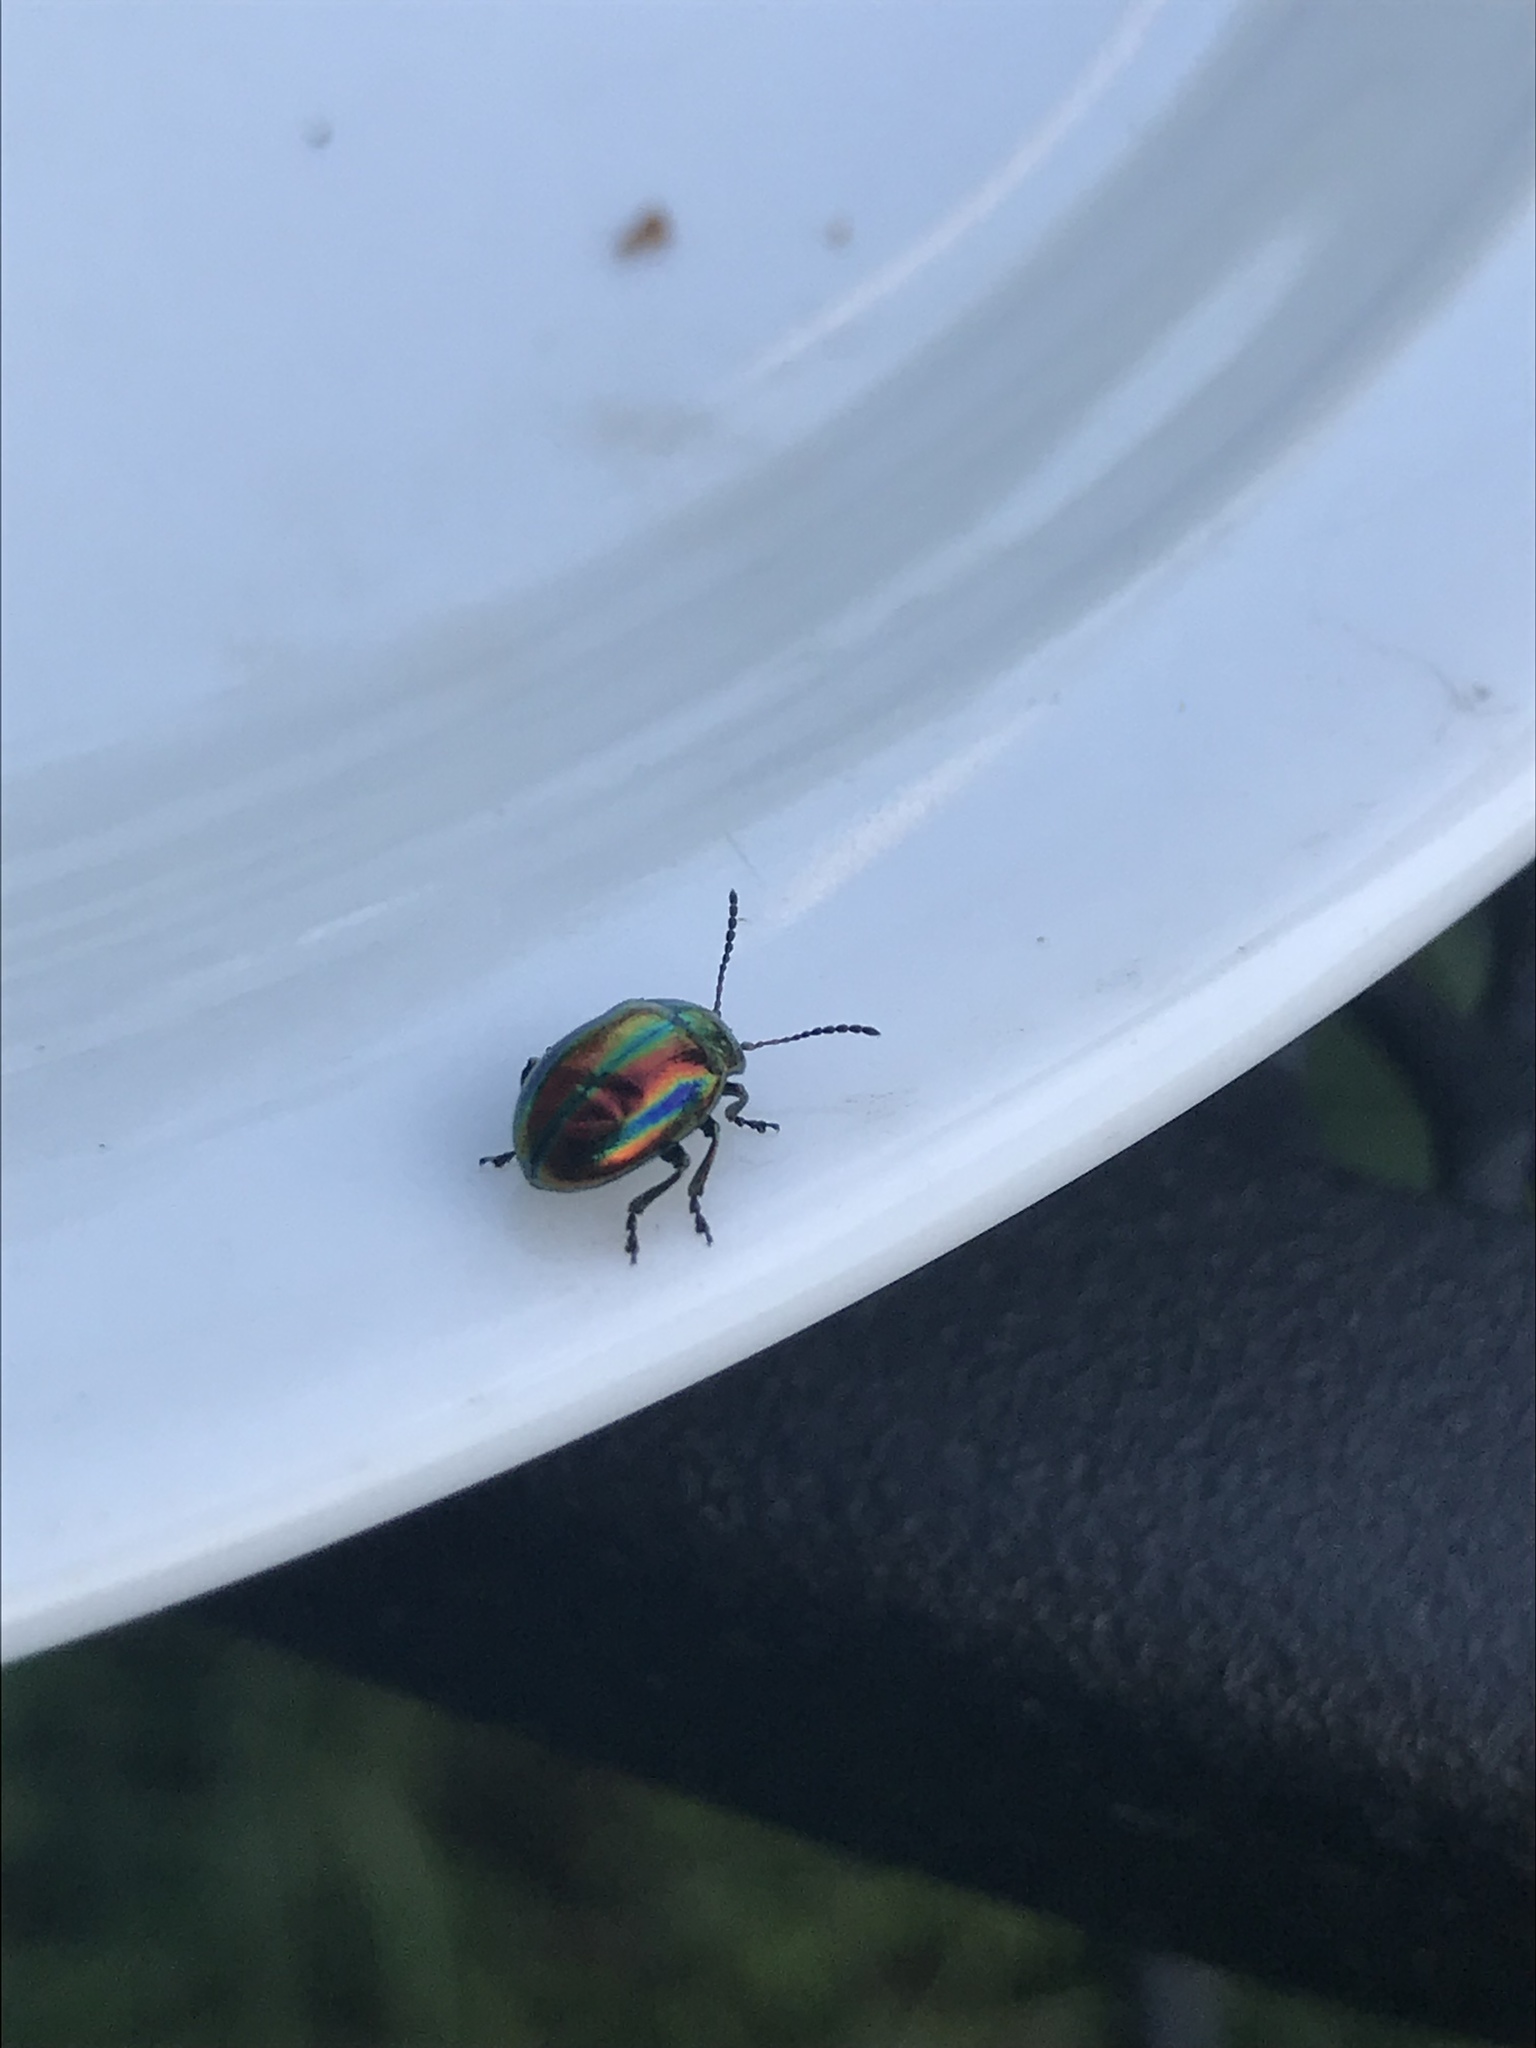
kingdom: Animalia
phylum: Arthropoda
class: Insecta
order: Coleoptera
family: Chrysomelidae
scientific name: Chrysomelidae
